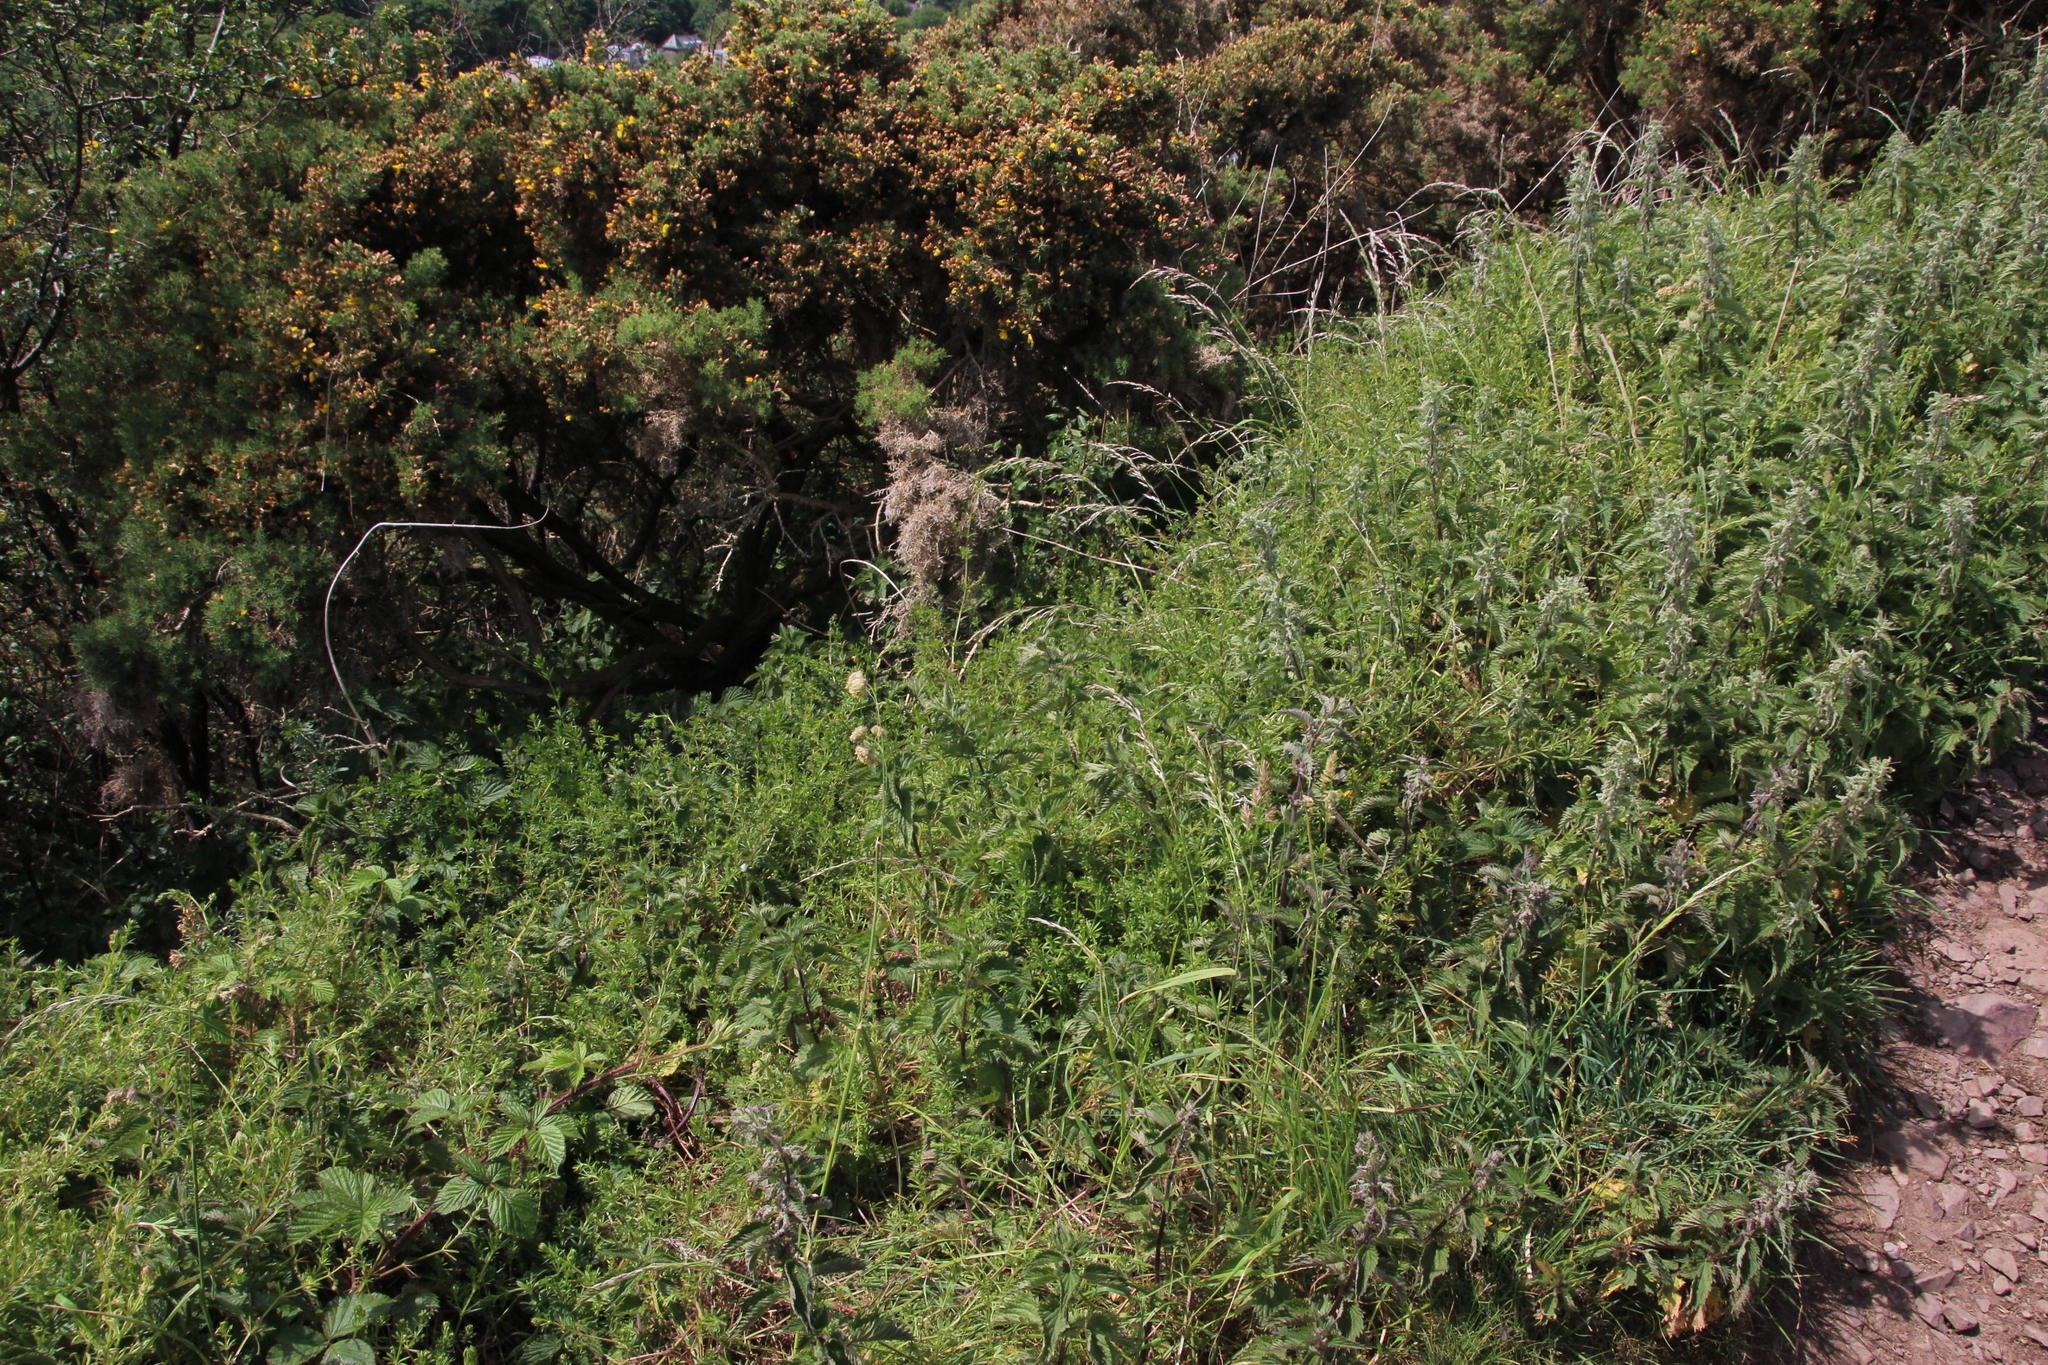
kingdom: Plantae
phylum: Tracheophyta
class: Magnoliopsida
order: Gentianales
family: Rubiaceae
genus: Galium
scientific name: Galium aparine
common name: Cleavers
